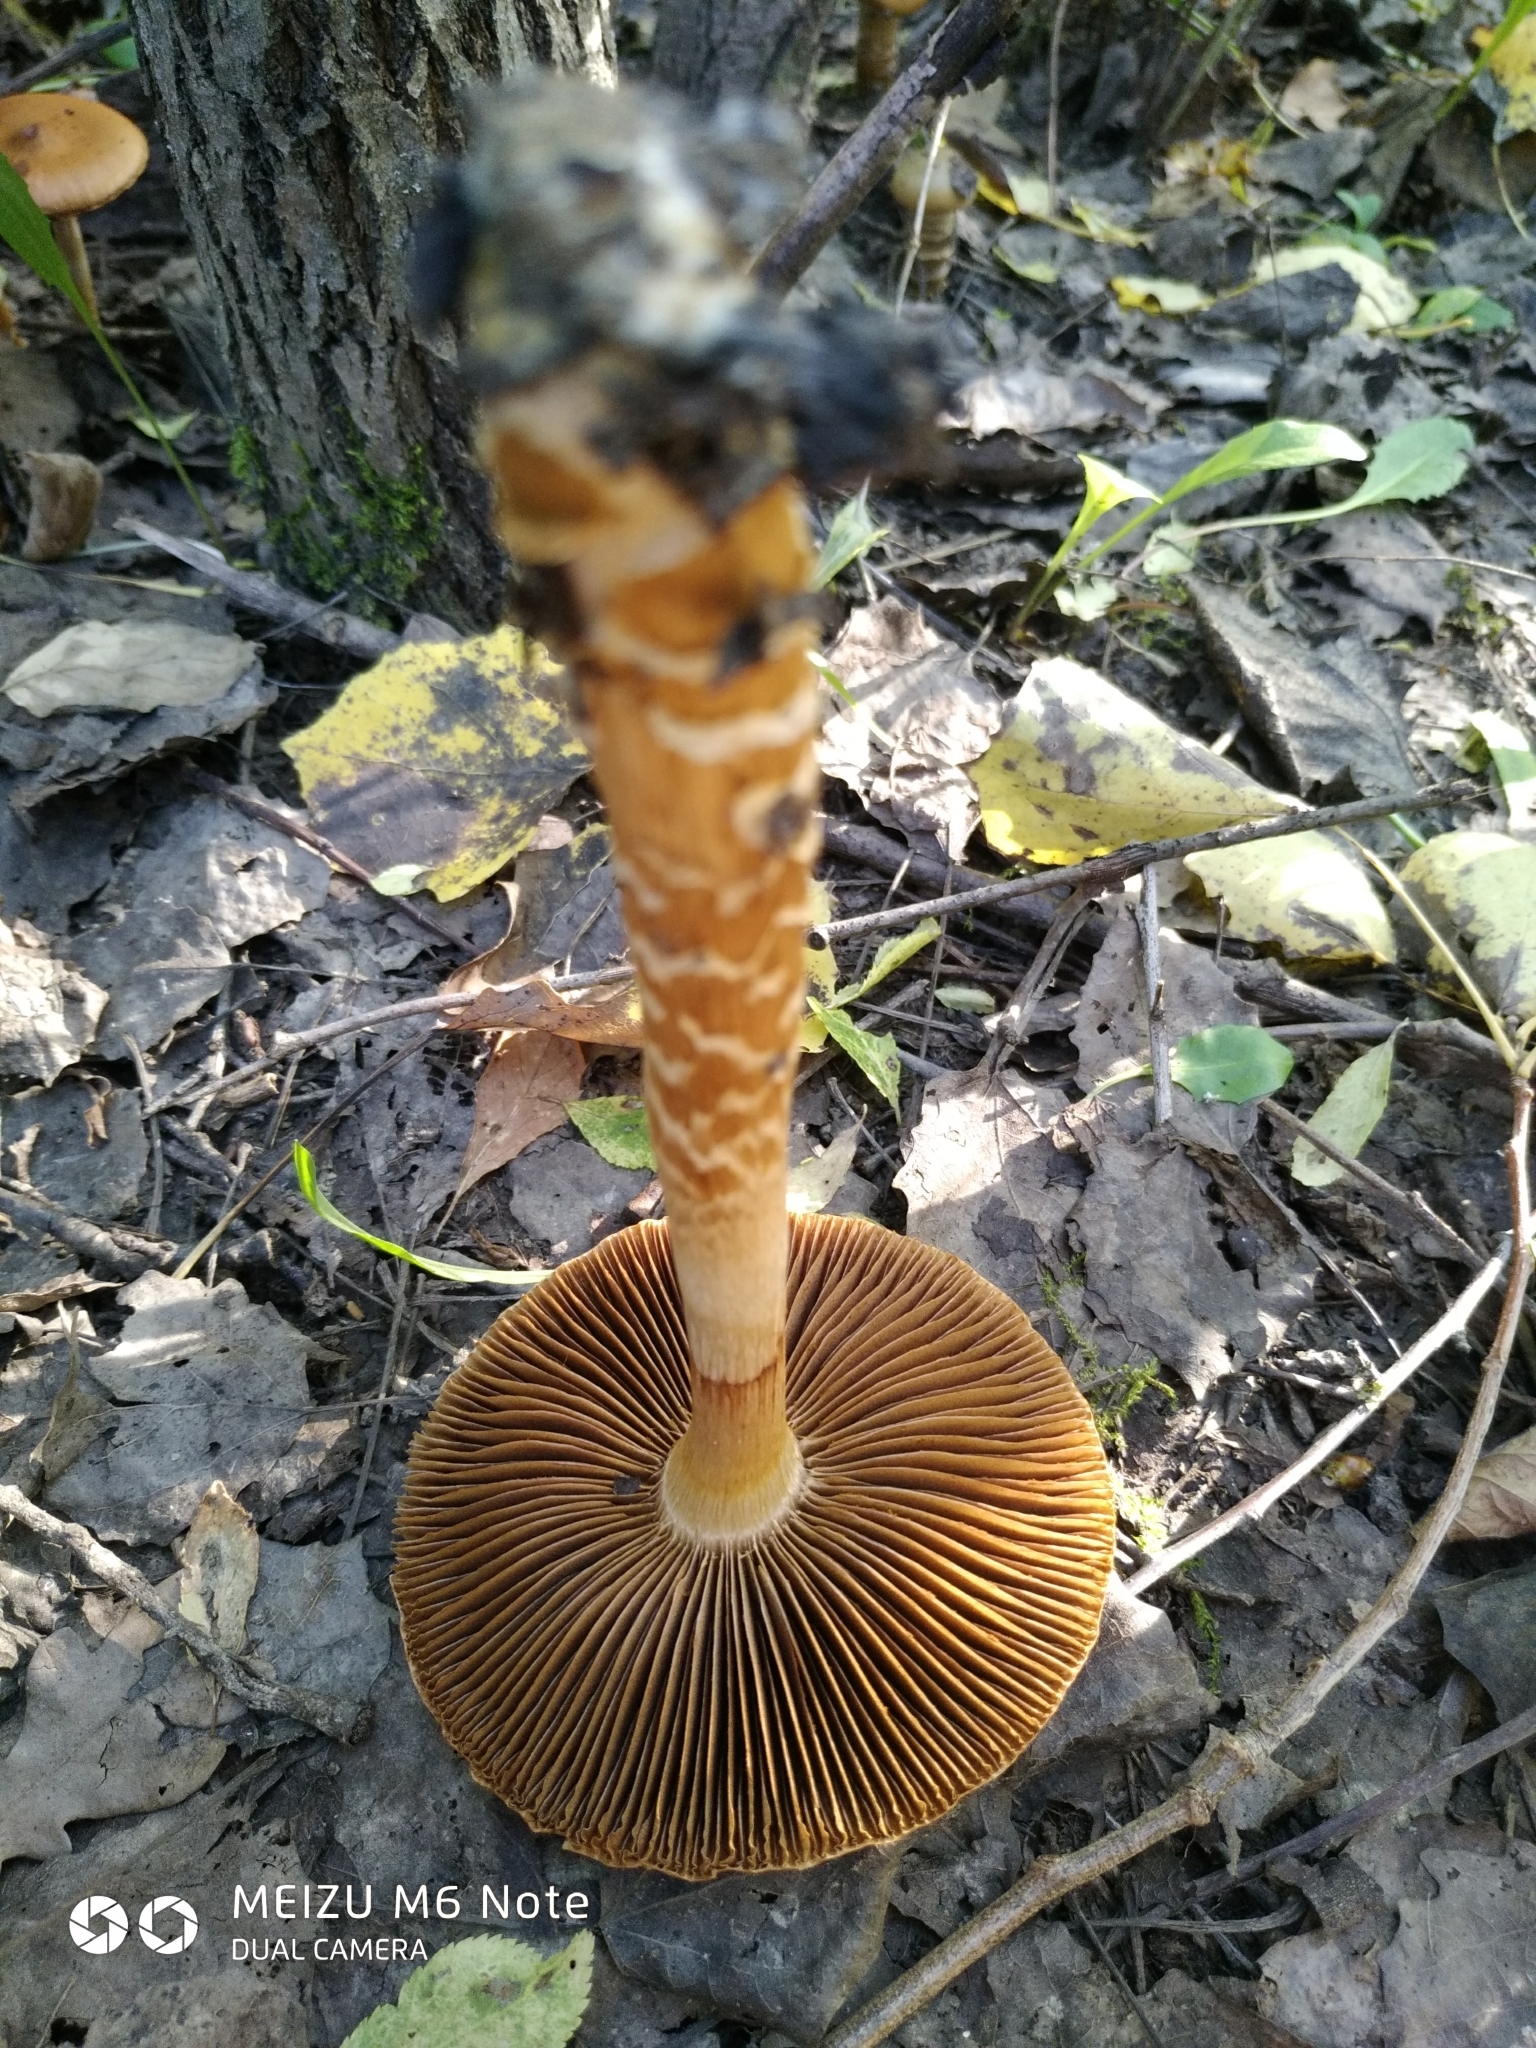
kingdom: Fungi
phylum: Basidiomycota
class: Agaricomycetes
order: Agaricales
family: Cortinariaceae
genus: Cortinarius
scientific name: Cortinarius trivialis
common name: Girdled webcap
